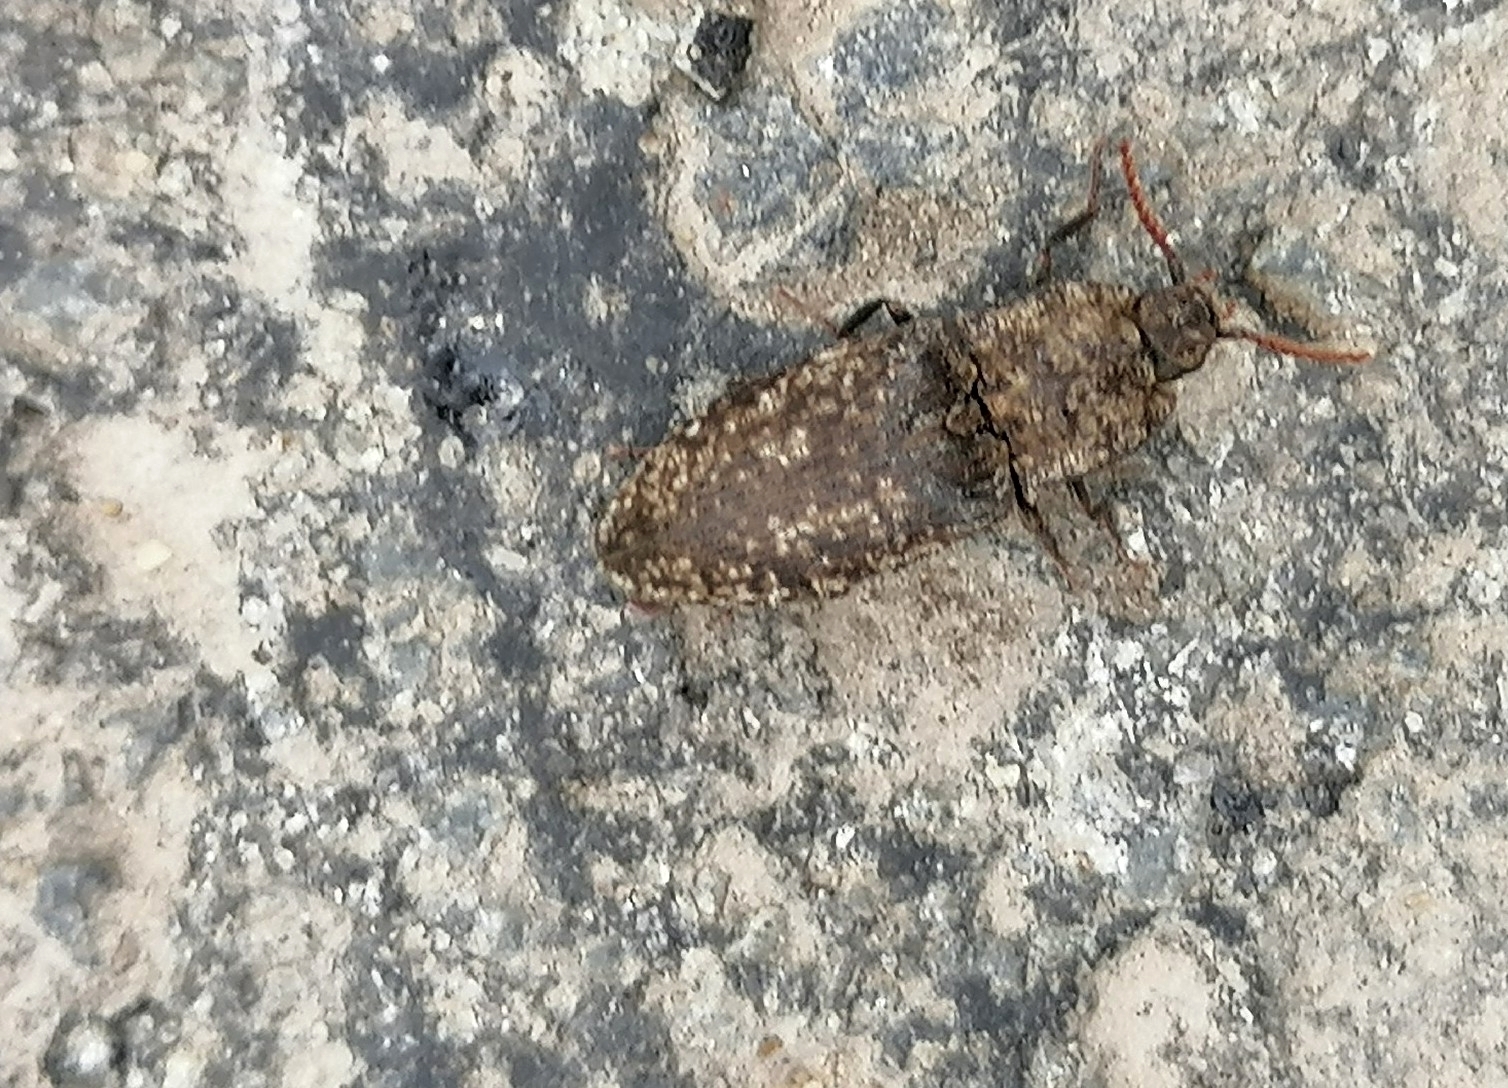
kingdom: Animalia
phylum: Arthropoda
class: Insecta
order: Coleoptera
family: Elateridae
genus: Agrypnus
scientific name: Agrypnus murinus
